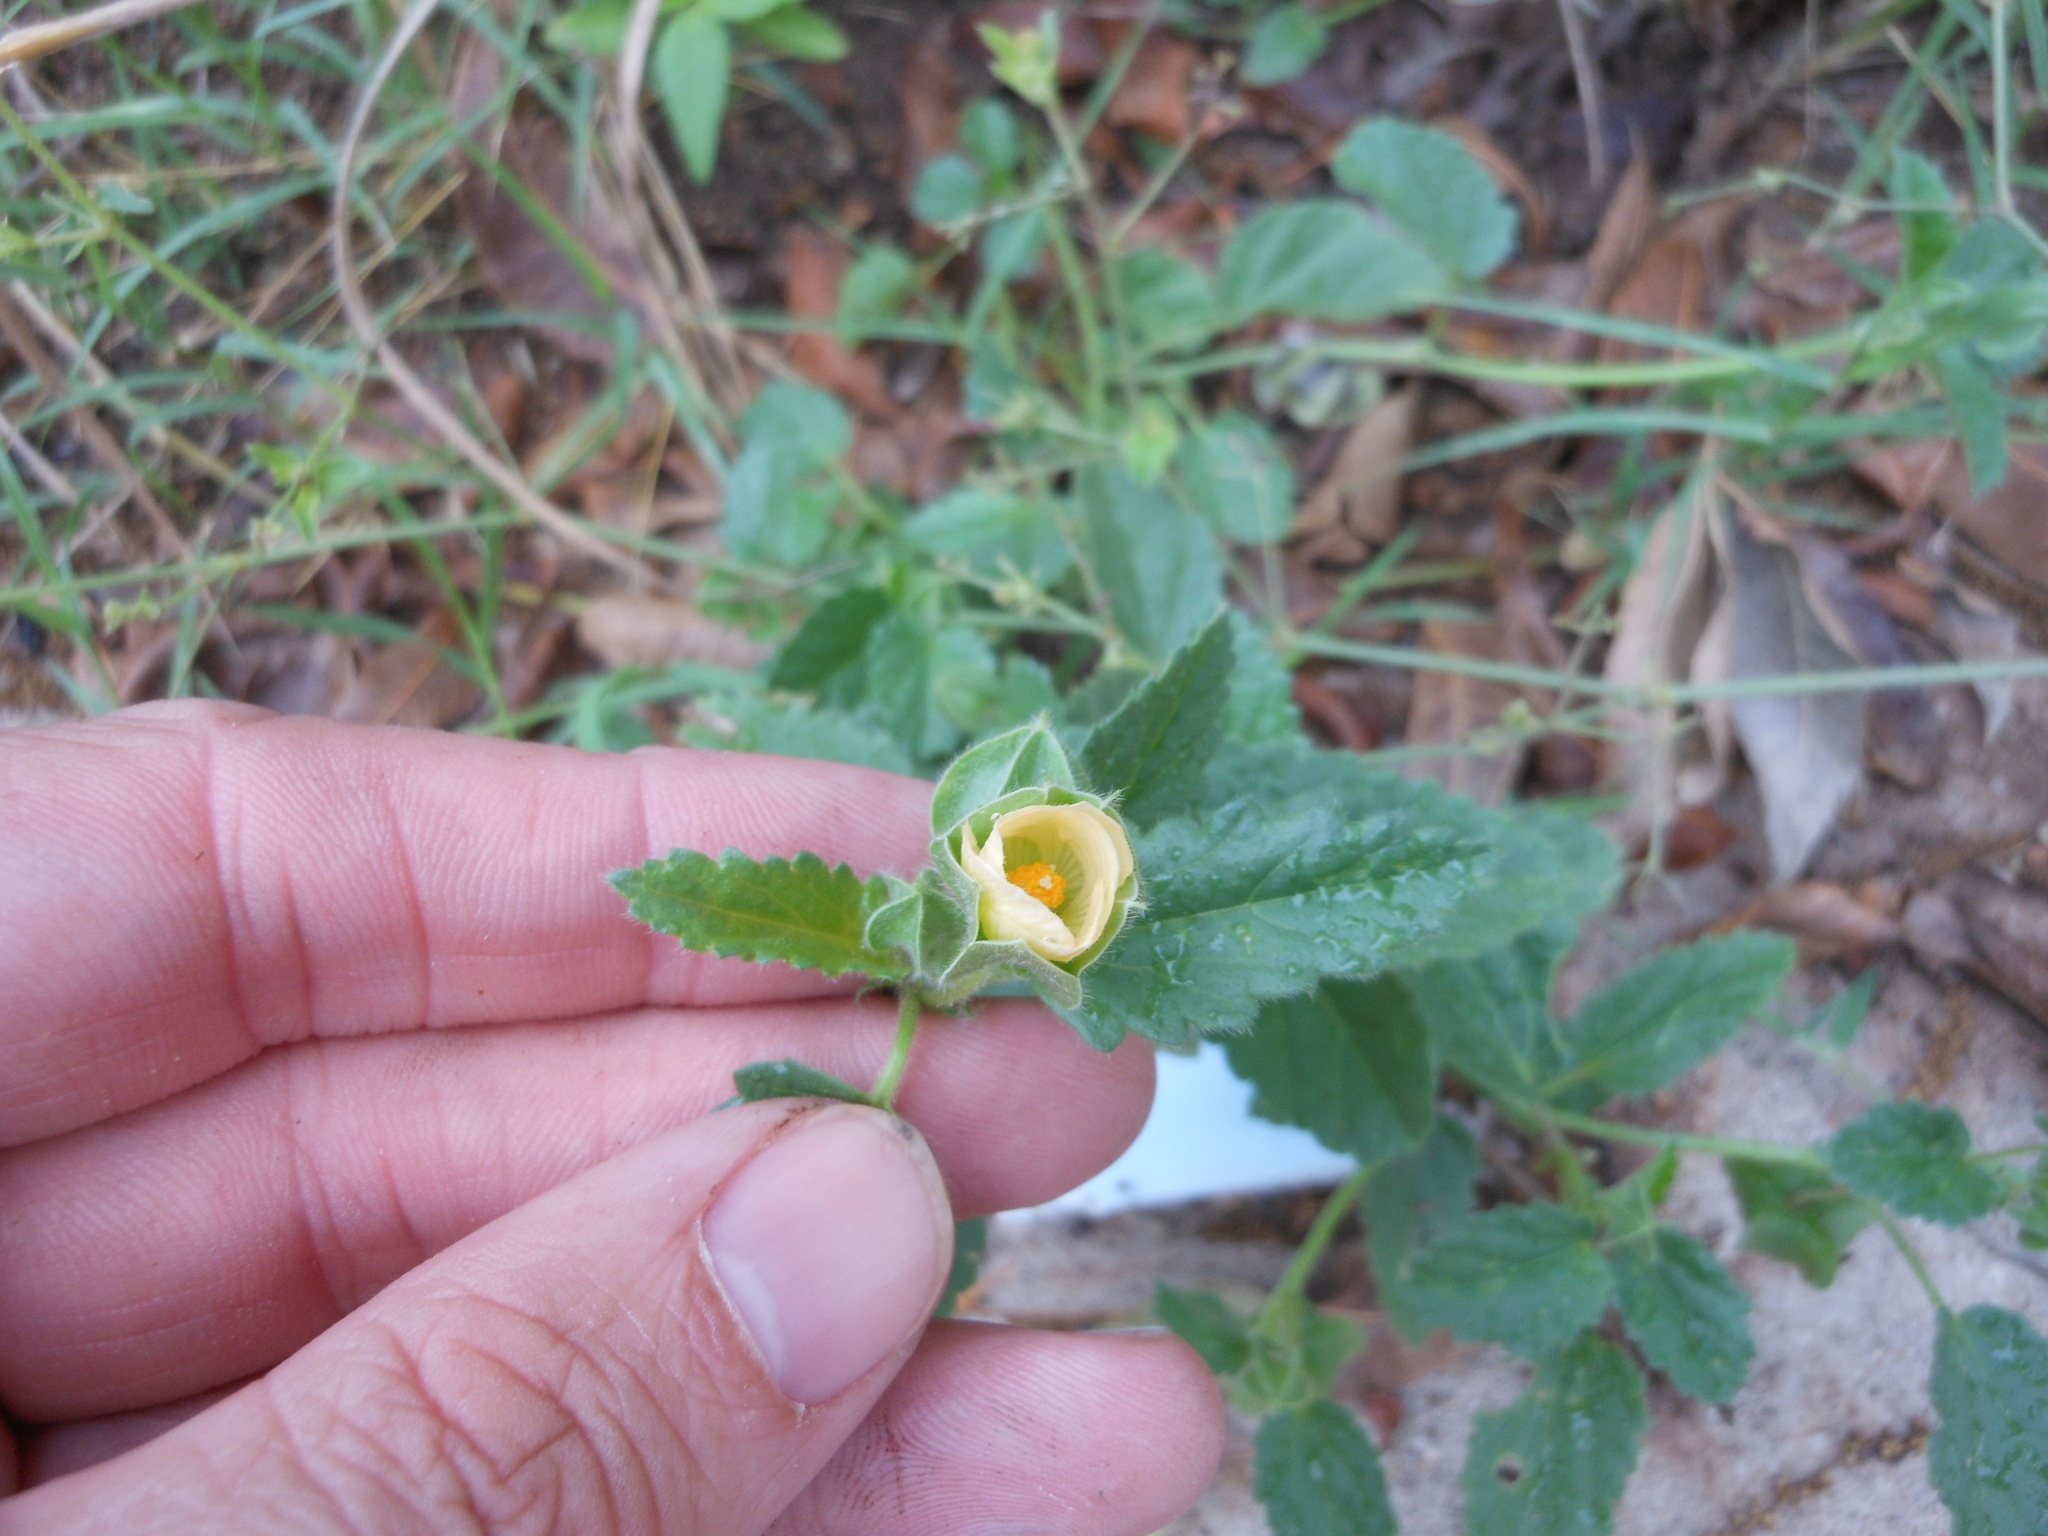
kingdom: Plantae
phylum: Tracheophyta
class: Magnoliopsida
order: Malvales
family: Malvaceae
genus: Rhynchosida
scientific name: Rhynchosida physocalyx
